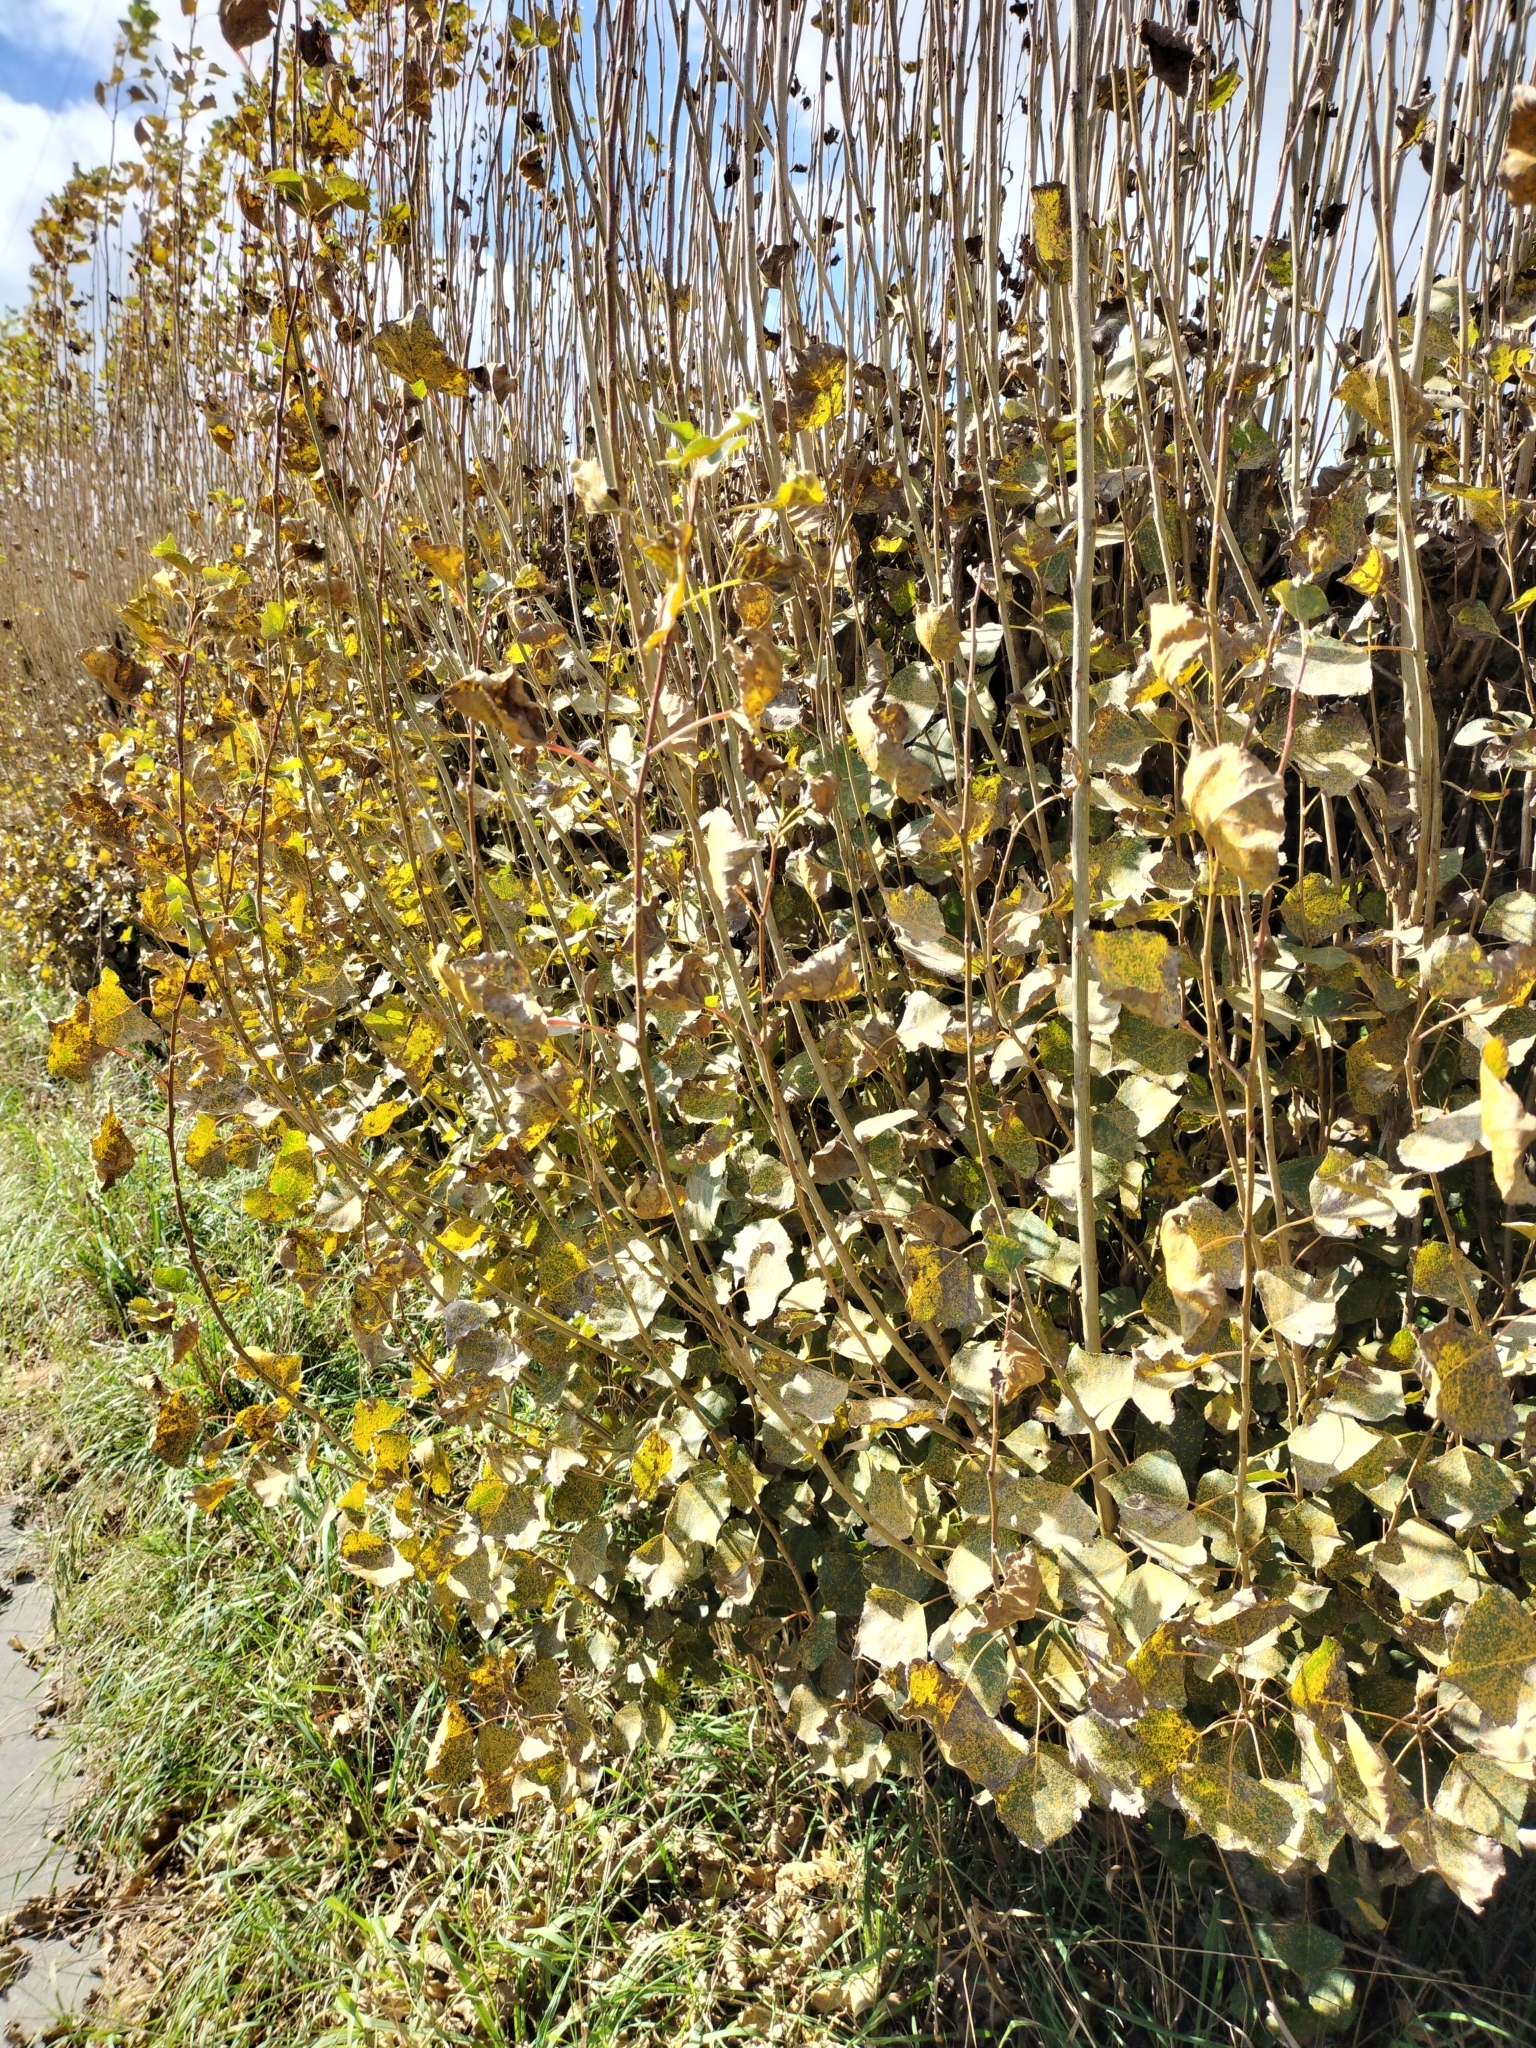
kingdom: Plantae
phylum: Tracheophyta
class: Magnoliopsida
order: Malpighiales
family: Salicaceae
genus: Populus
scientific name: Populus nigra
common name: Black poplar
